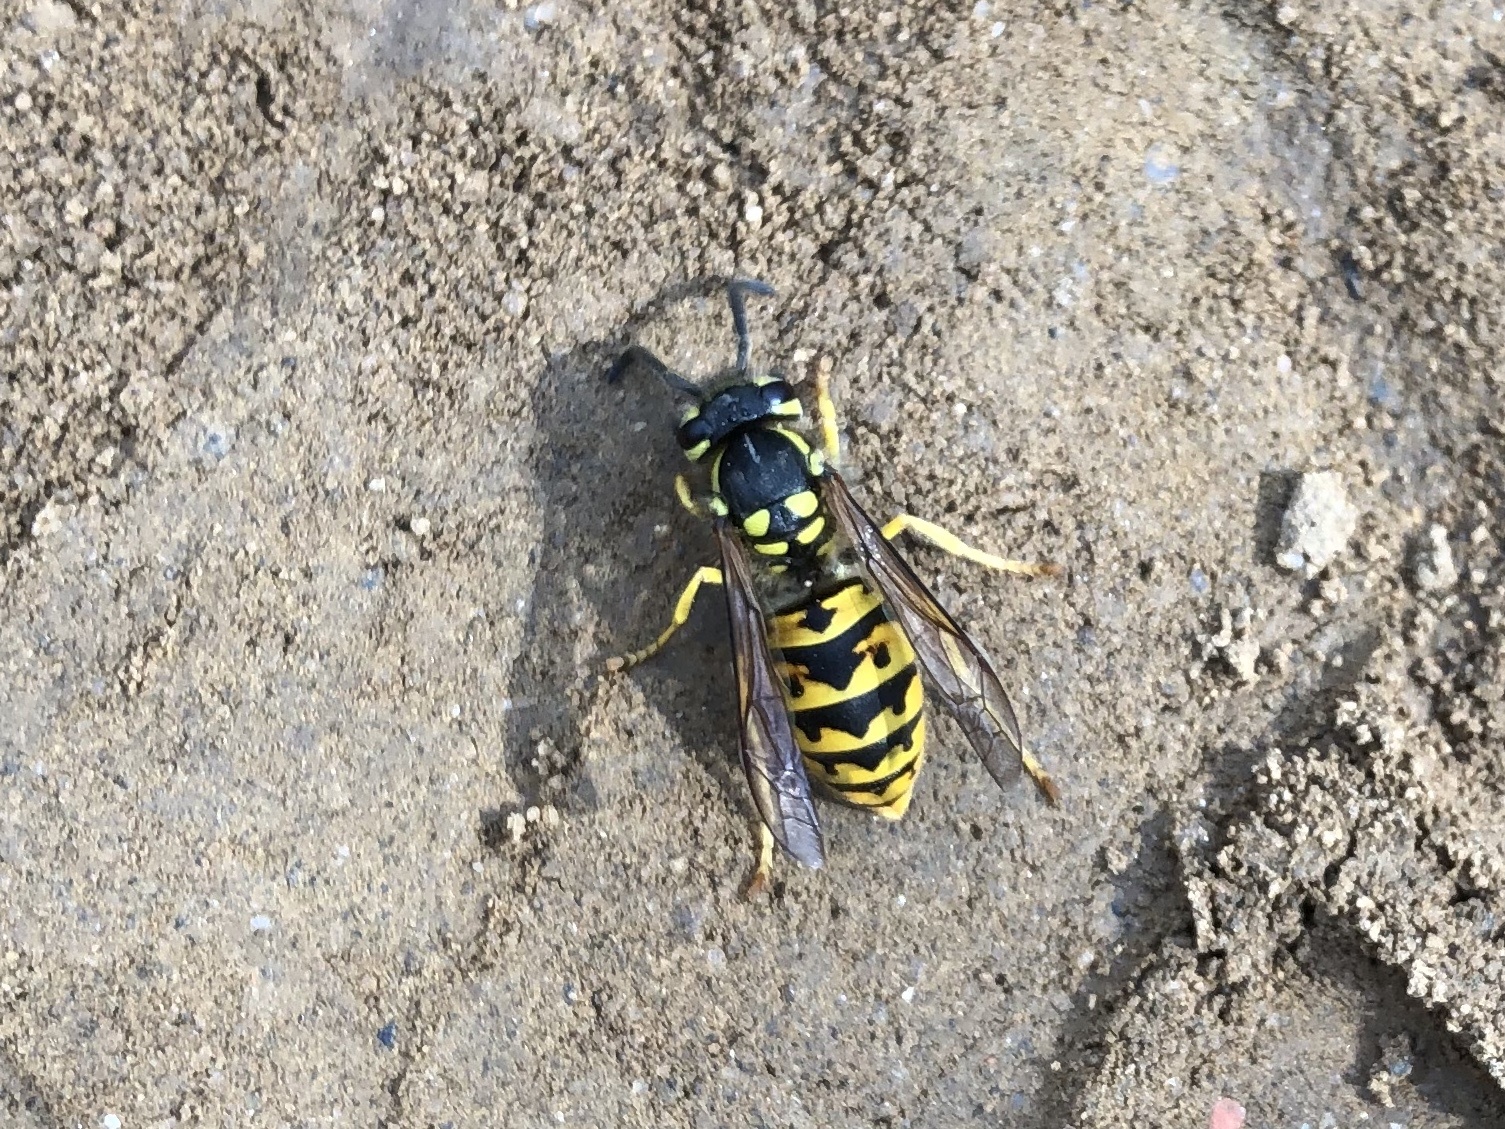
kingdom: Animalia
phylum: Arthropoda
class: Insecta
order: Hymenoptera
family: Vespidae
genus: Vespula
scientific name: Vespula germanica
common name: German wasp
